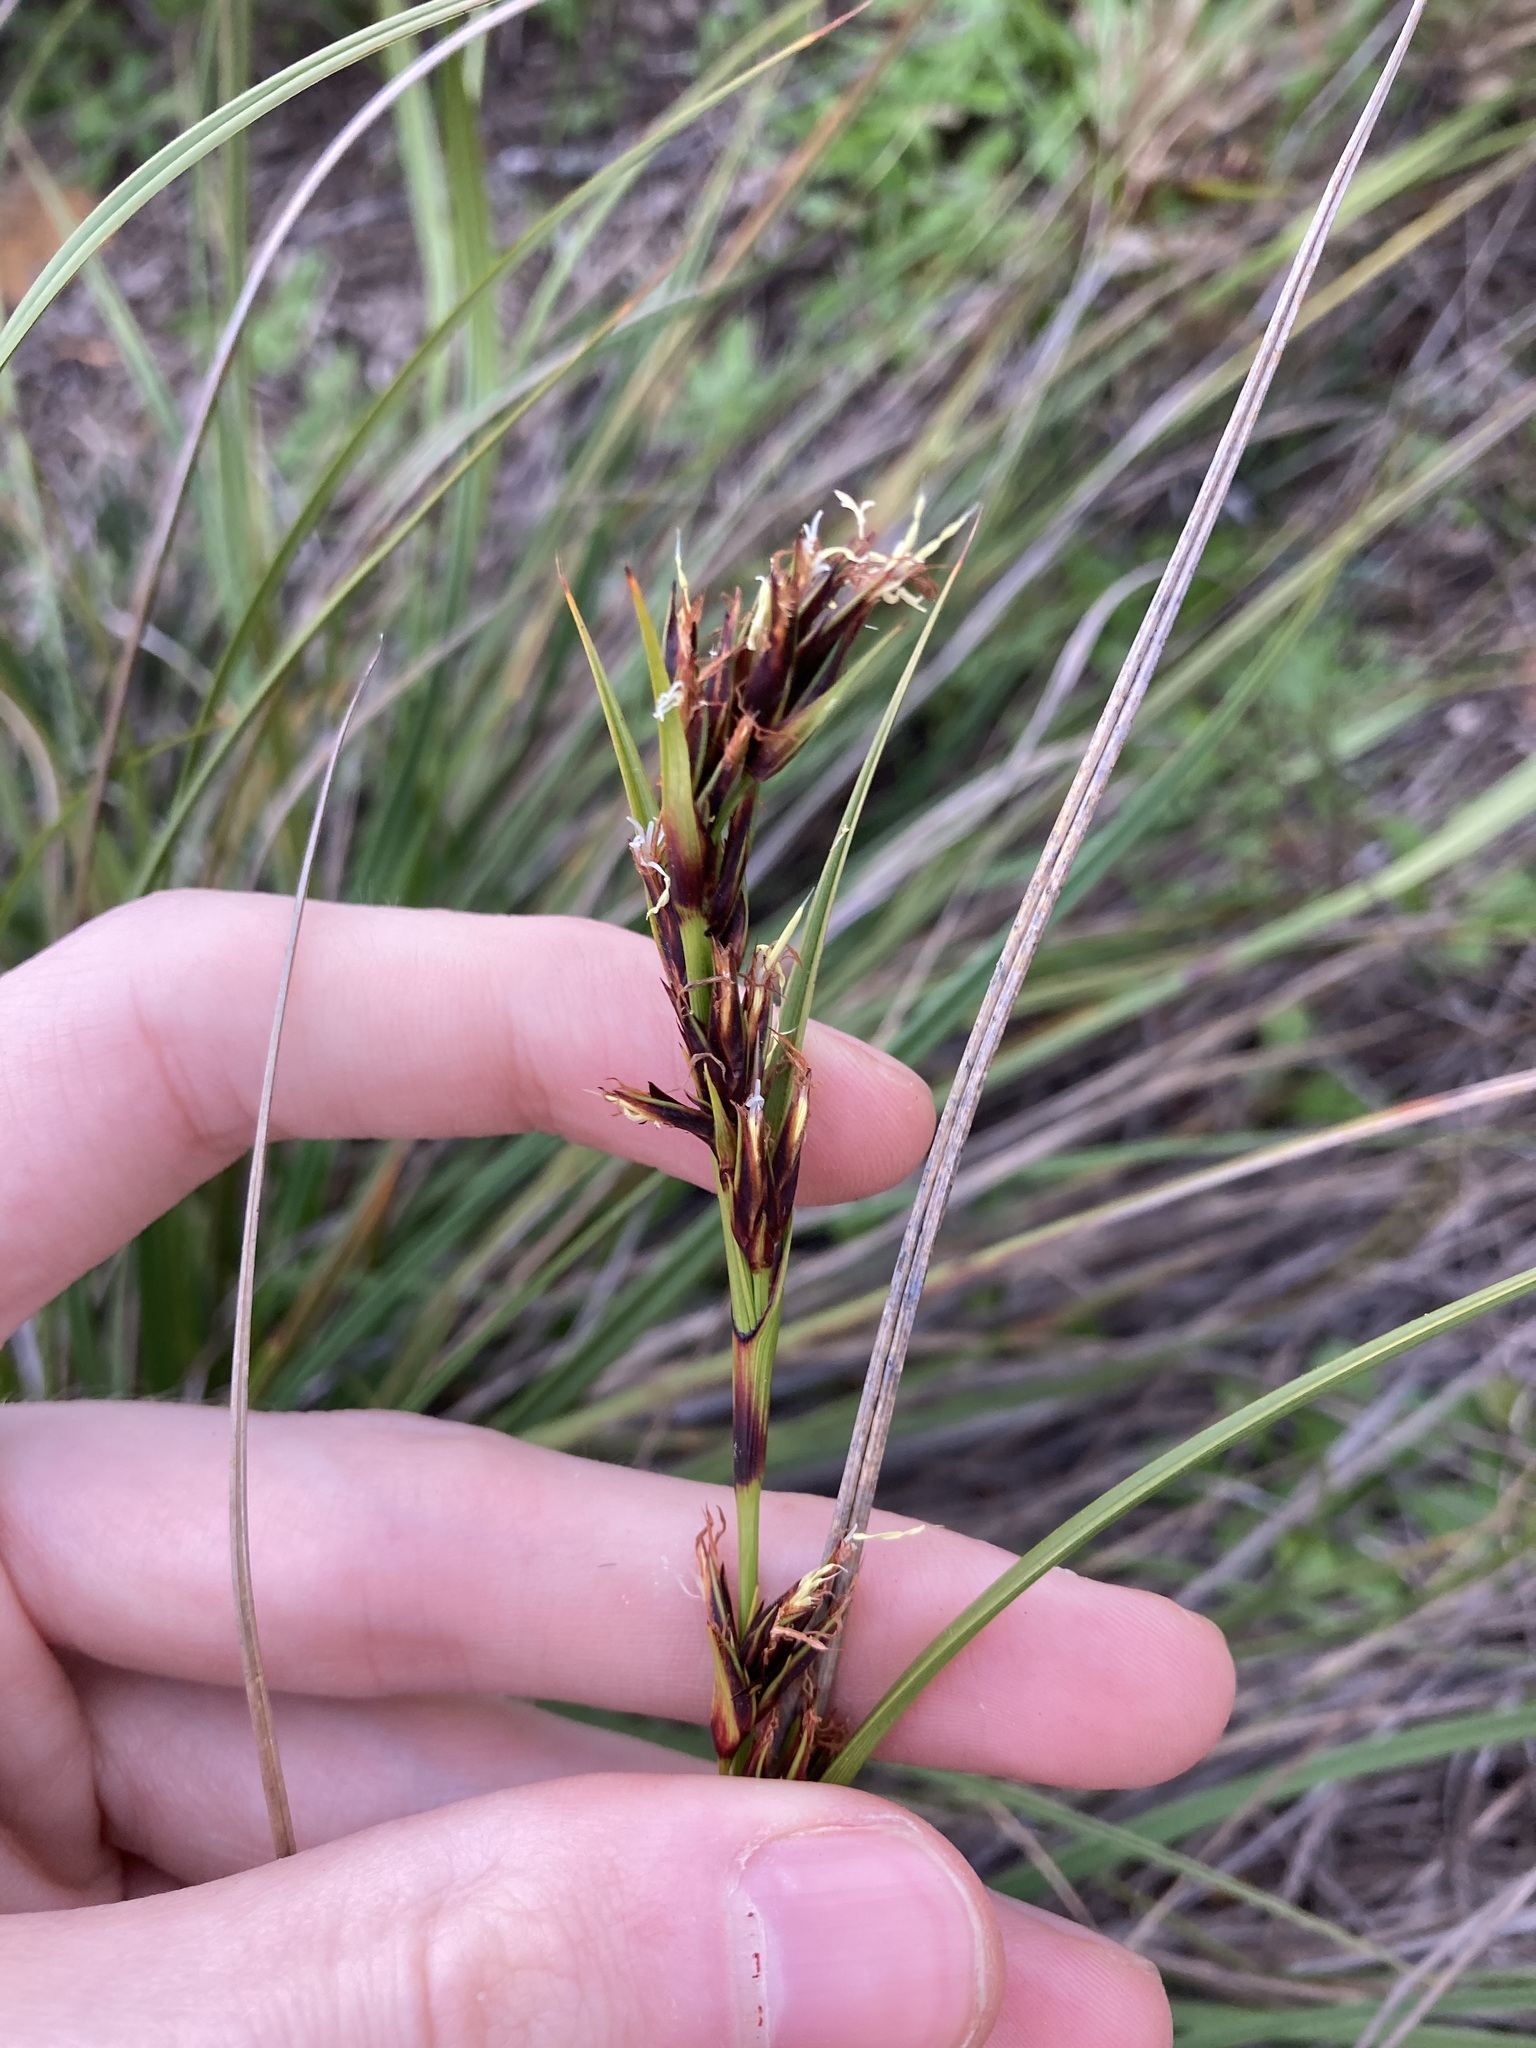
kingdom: Plantae
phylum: Tracheophyta
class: Liliopsida
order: Poales
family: Cyperaceae
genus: Morelotia
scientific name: Morelotia
